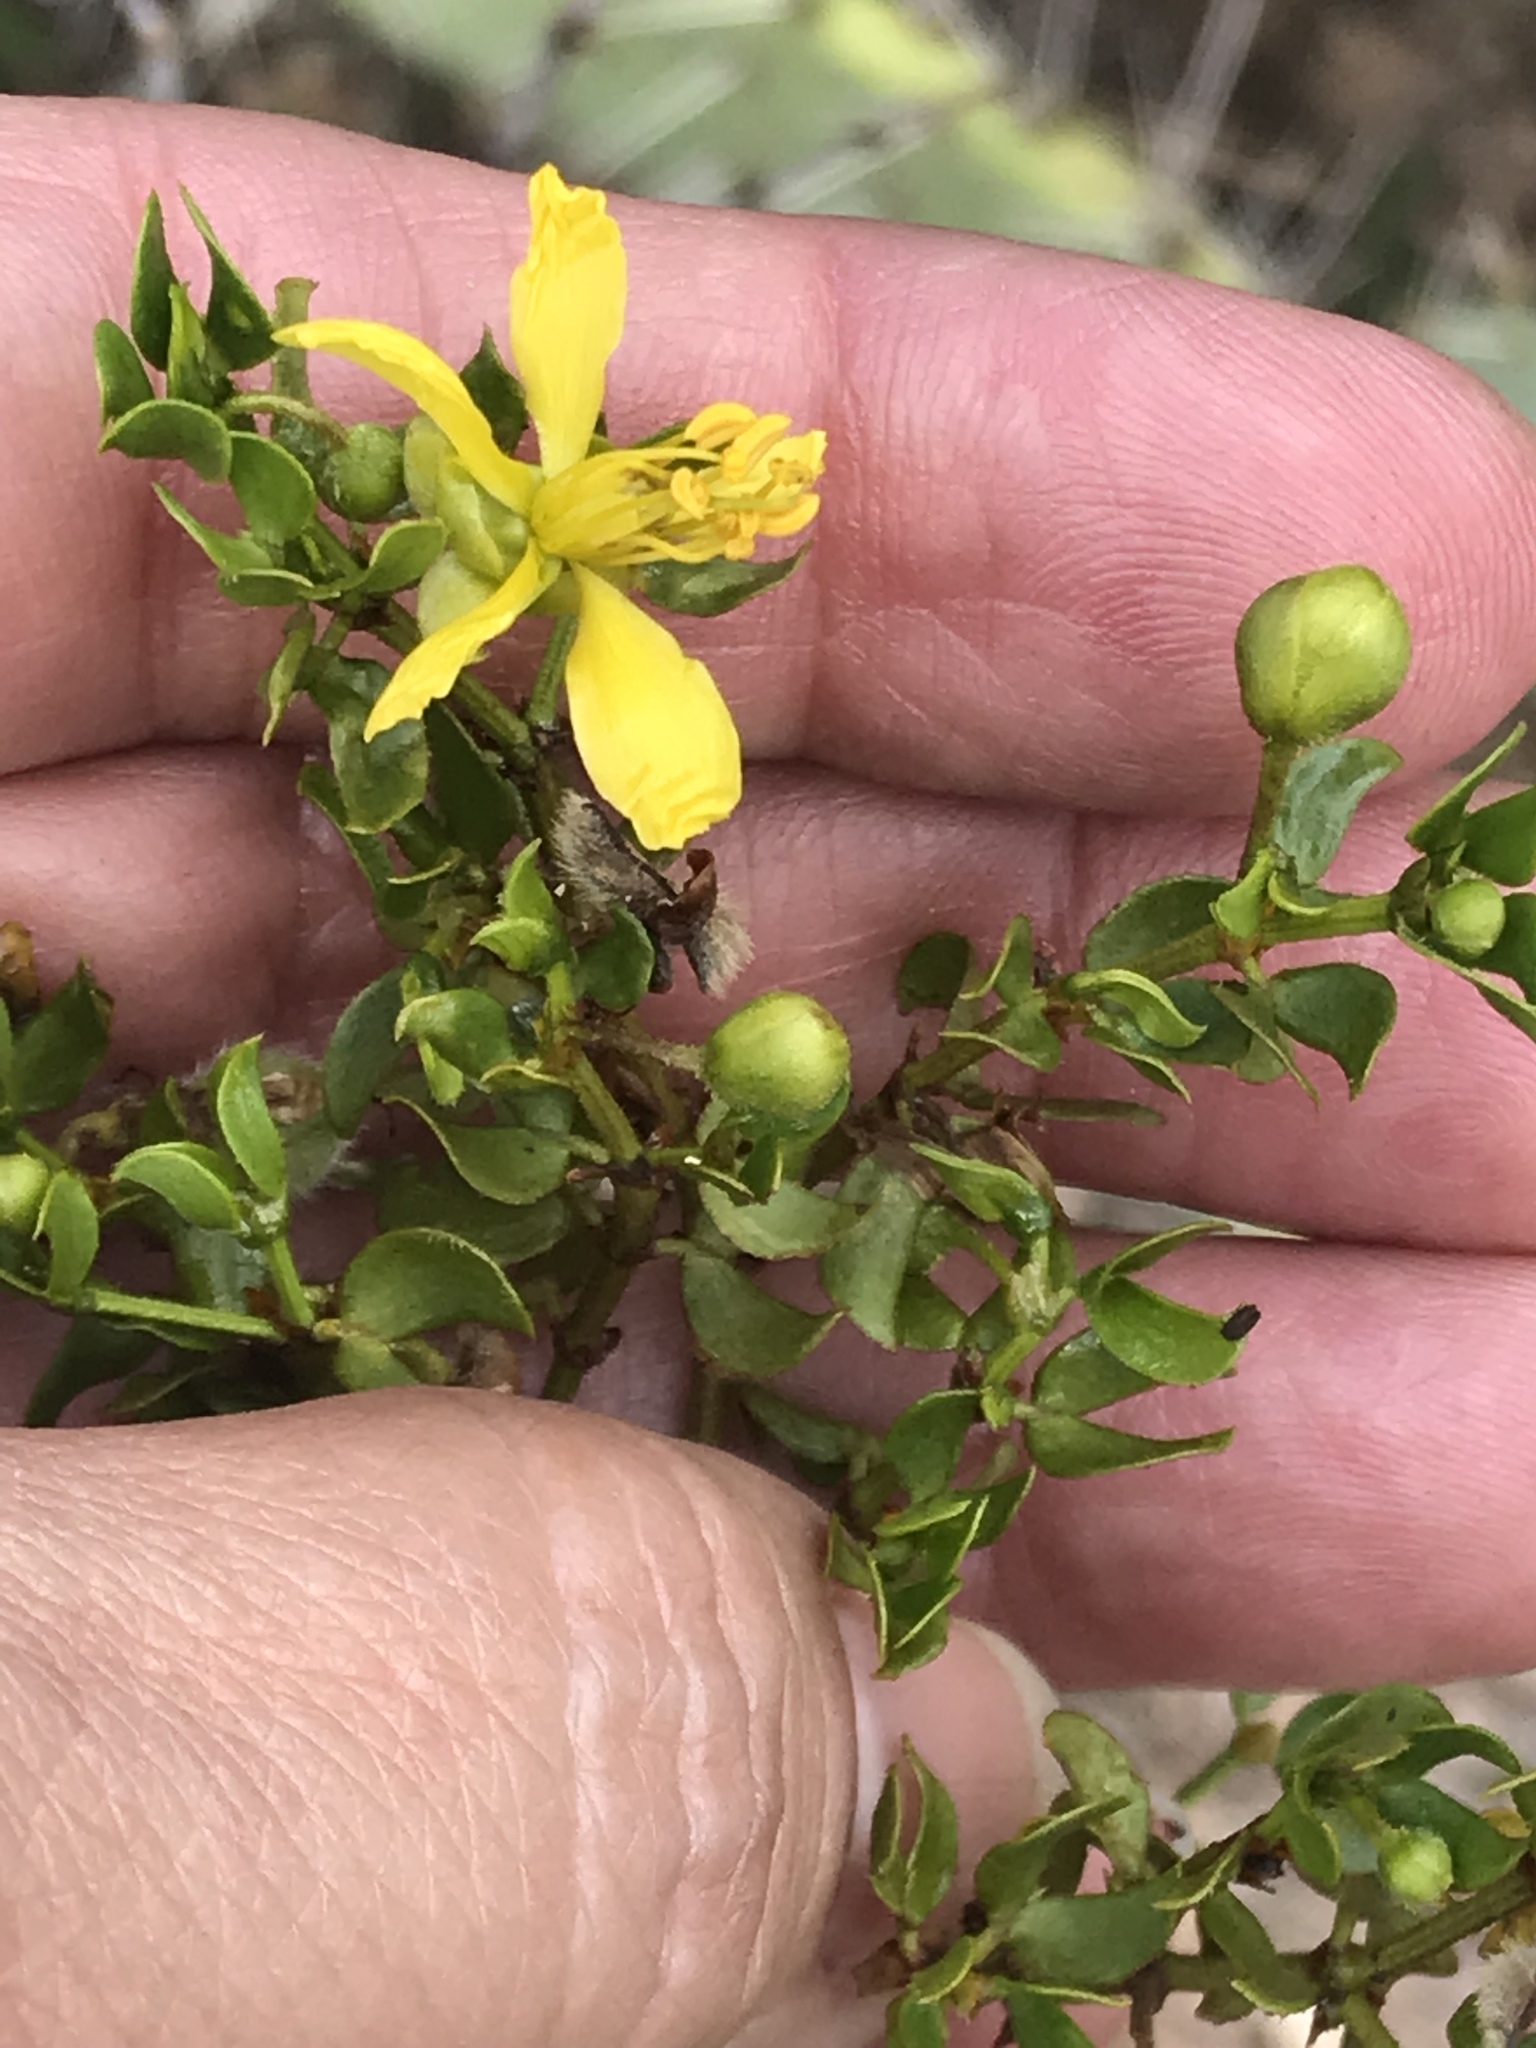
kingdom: Plantae
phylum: Tracheophyta
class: Magnoliopsida
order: Zygophyllales
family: Zygophyllaceae
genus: Larrea
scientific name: Larrea tridentata
